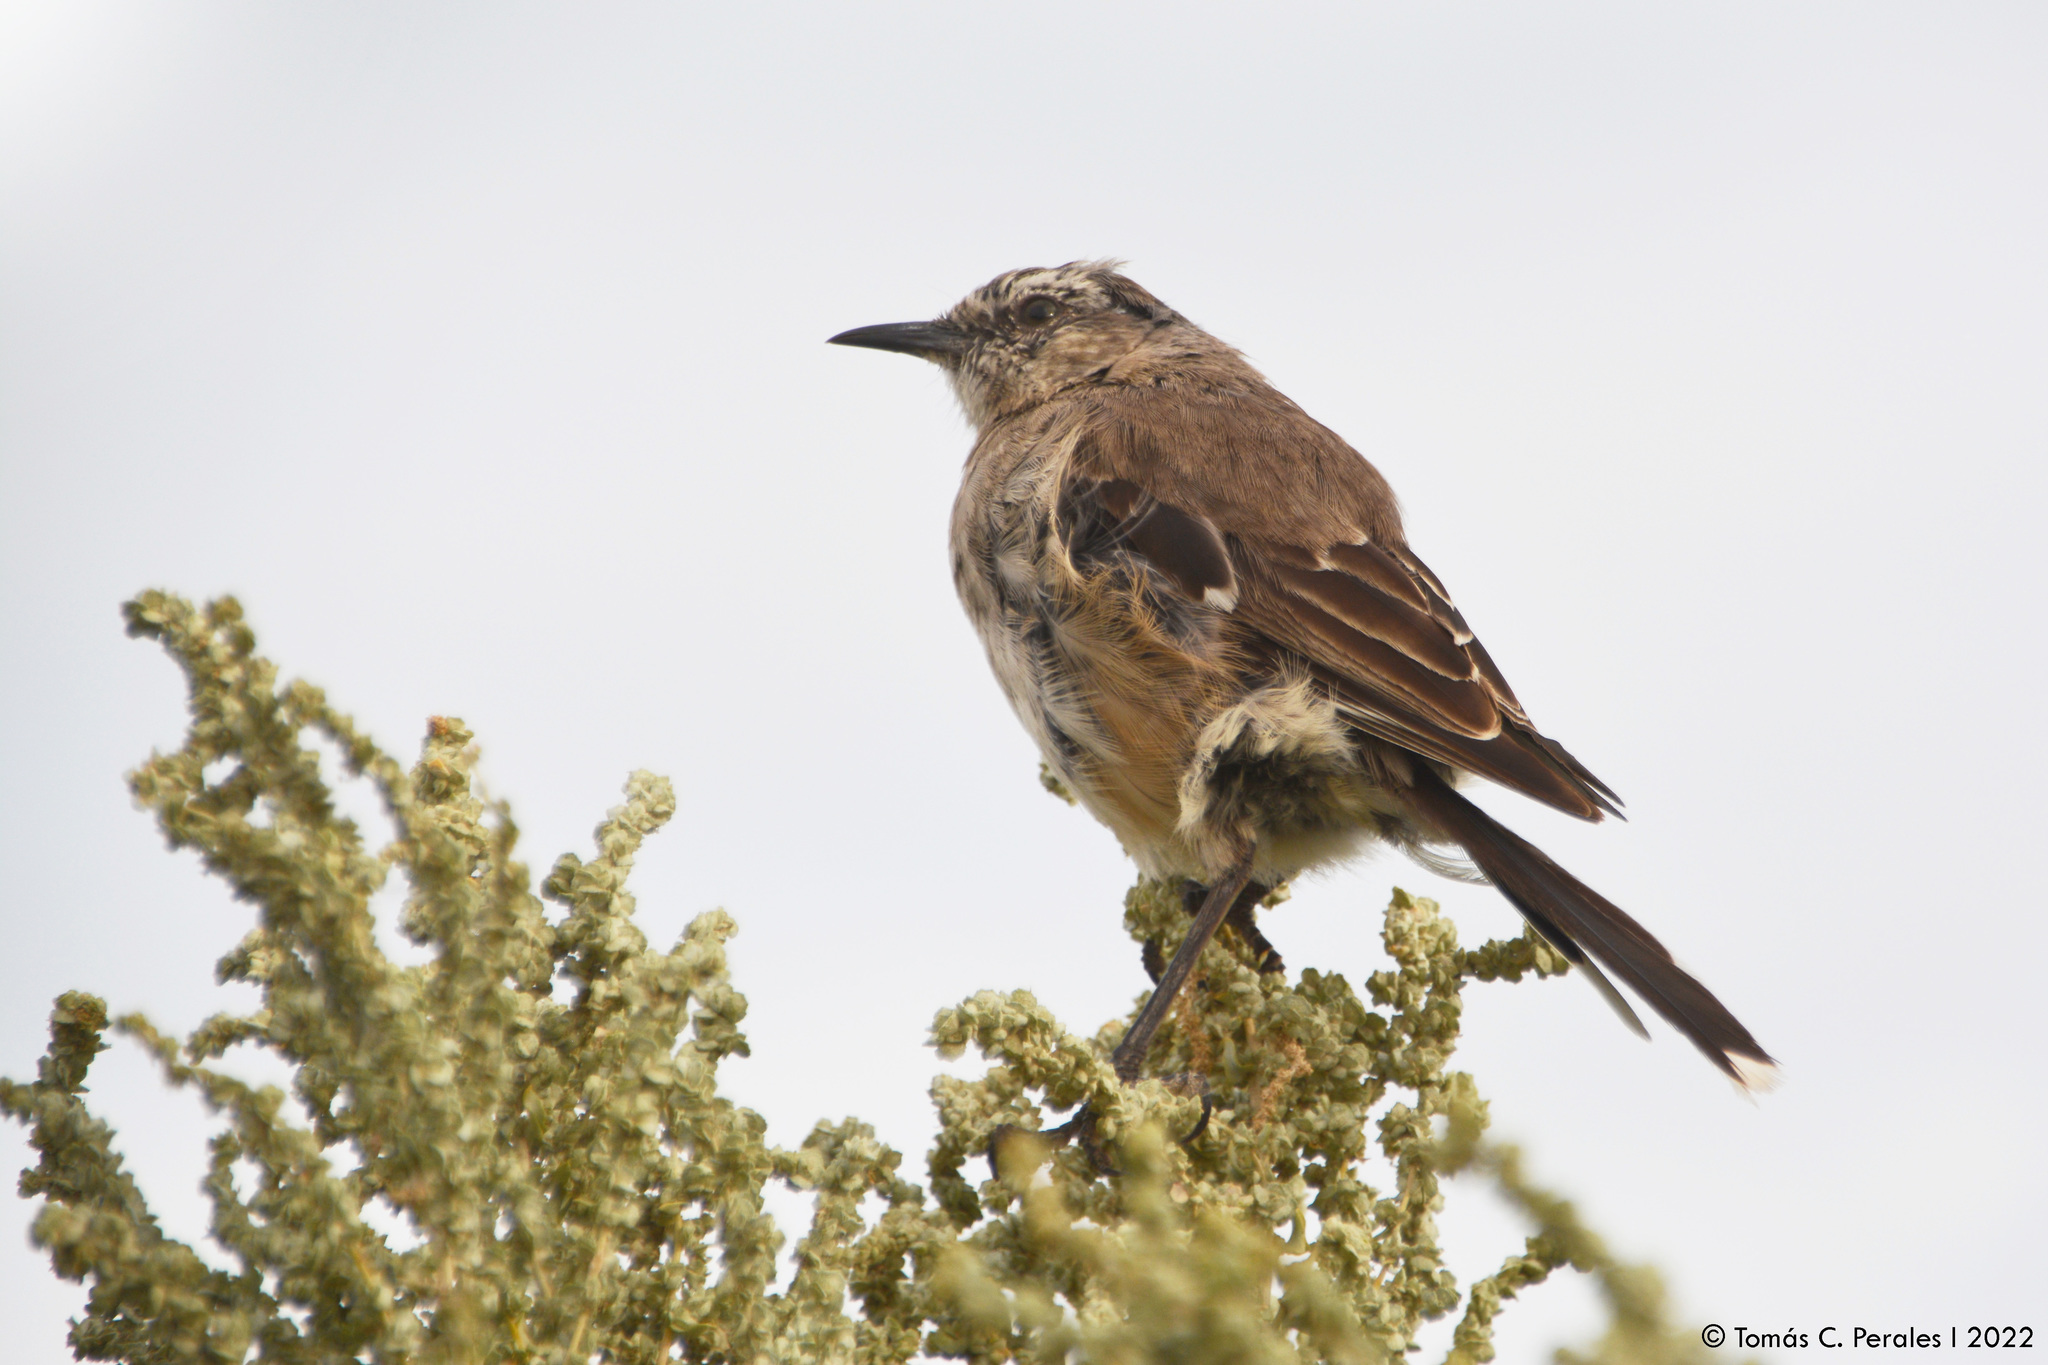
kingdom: Animalia
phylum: Chordata
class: Aves
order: Passeriformes
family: Mimidae
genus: Mimus
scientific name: Mimus patagonicus
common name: Patagonian mockingbird
